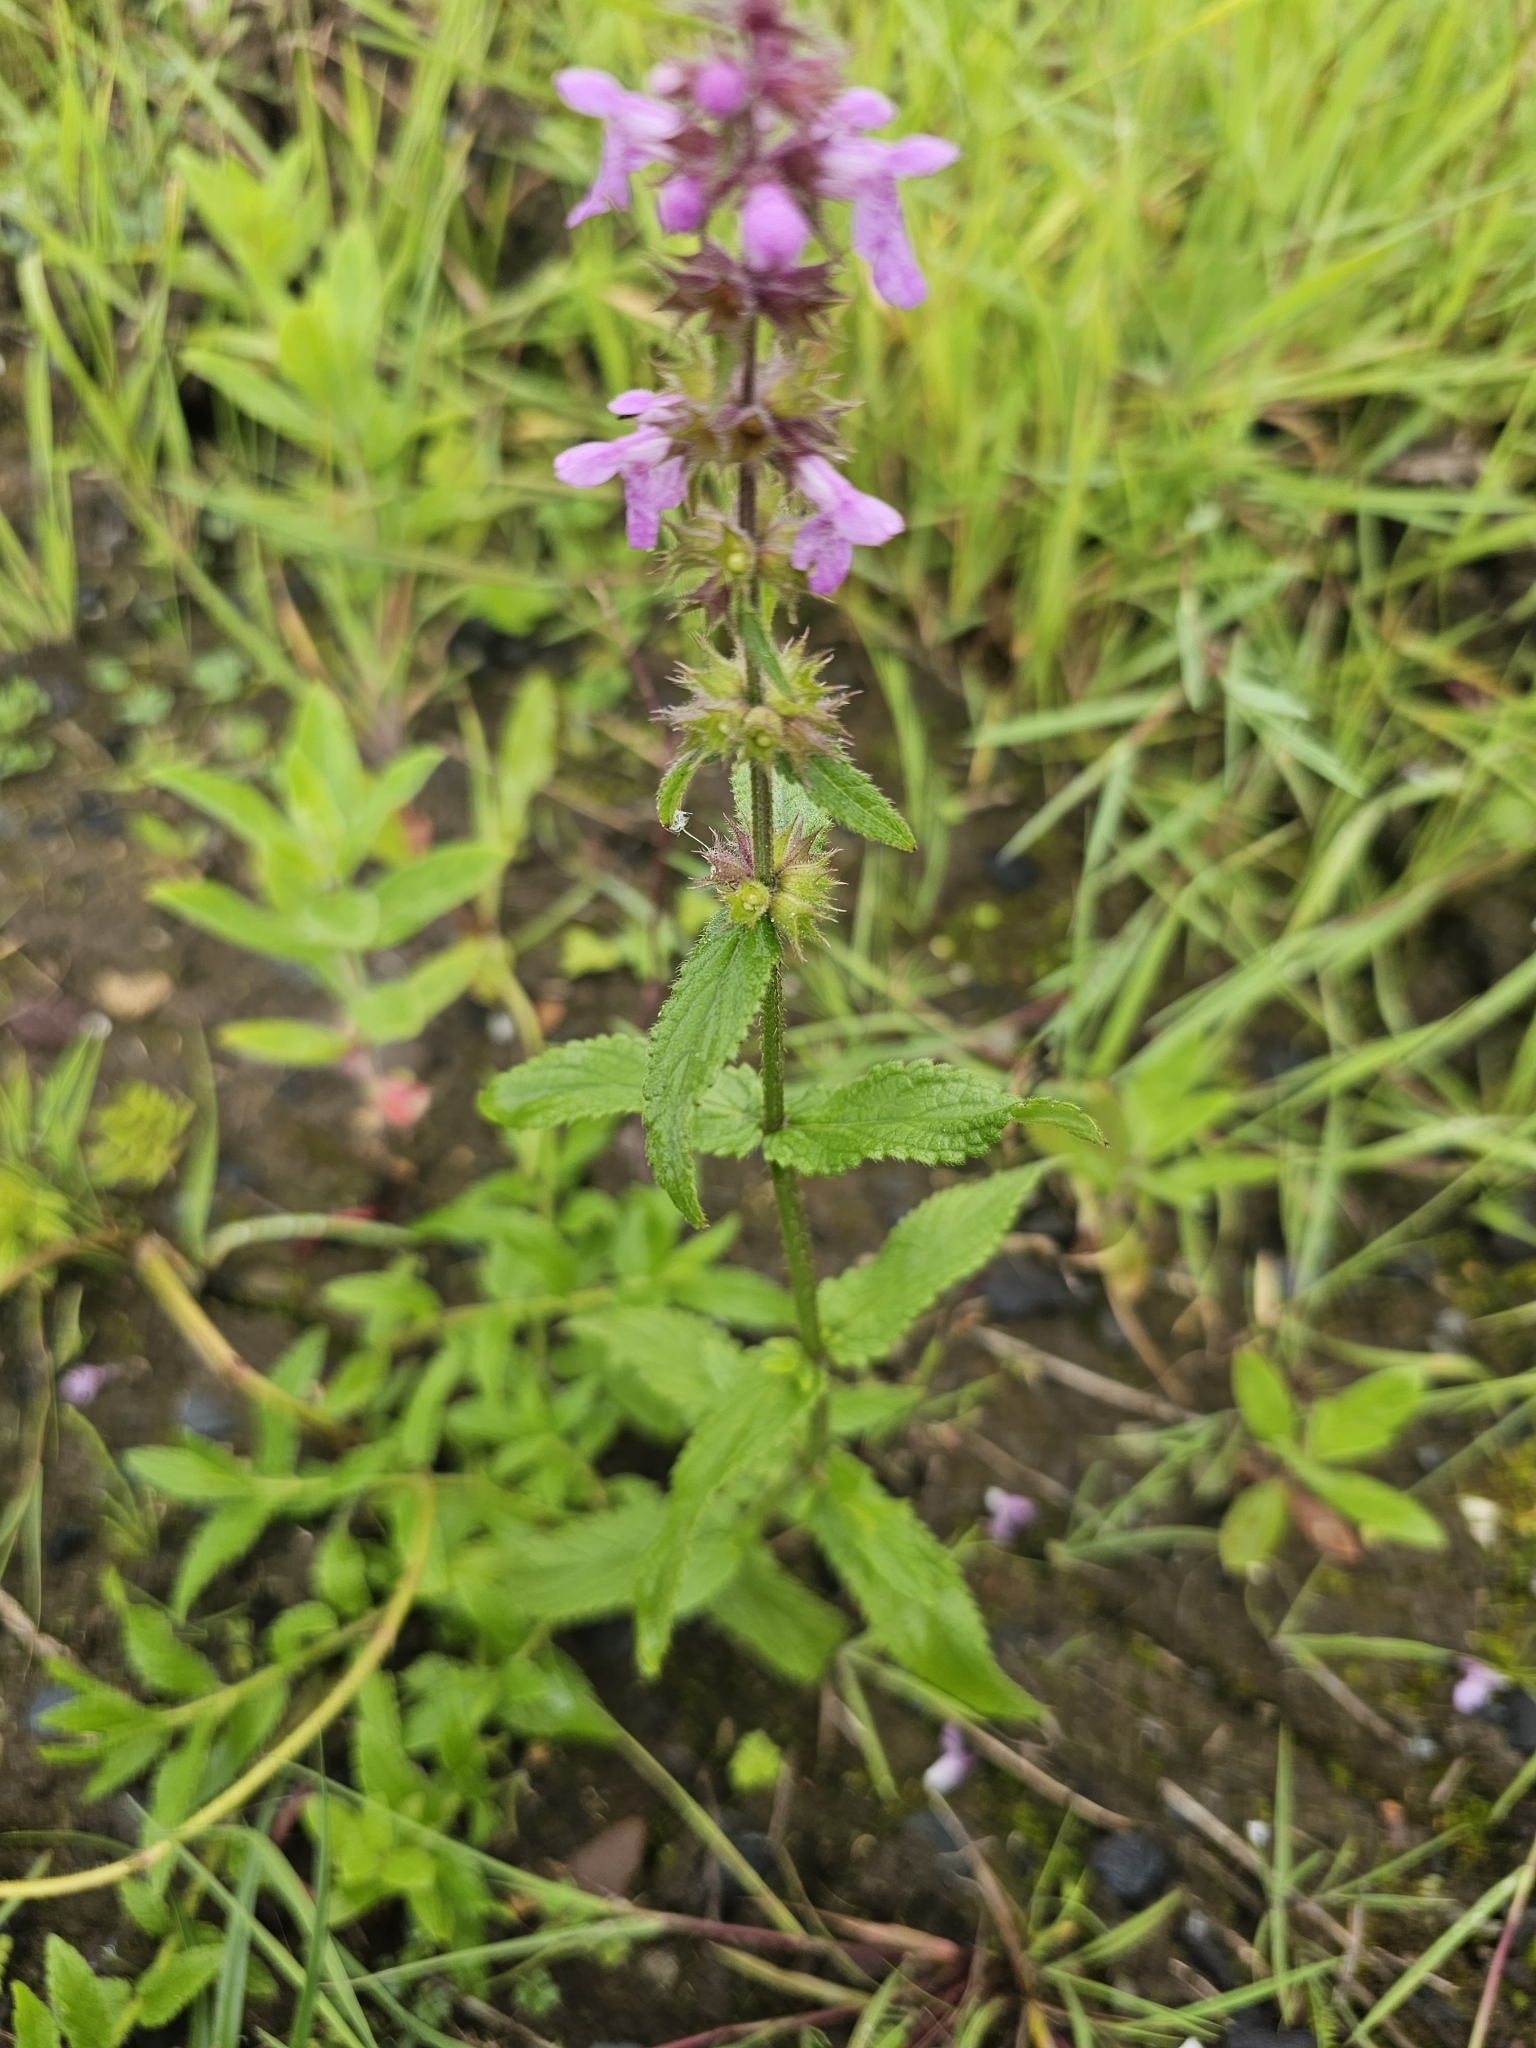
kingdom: Plantae
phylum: Tracheophyta
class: Magnoliopsida
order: Lamiales
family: Lamiaceae
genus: Stachys
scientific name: Stachys palustris
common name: Marsh woundwort
